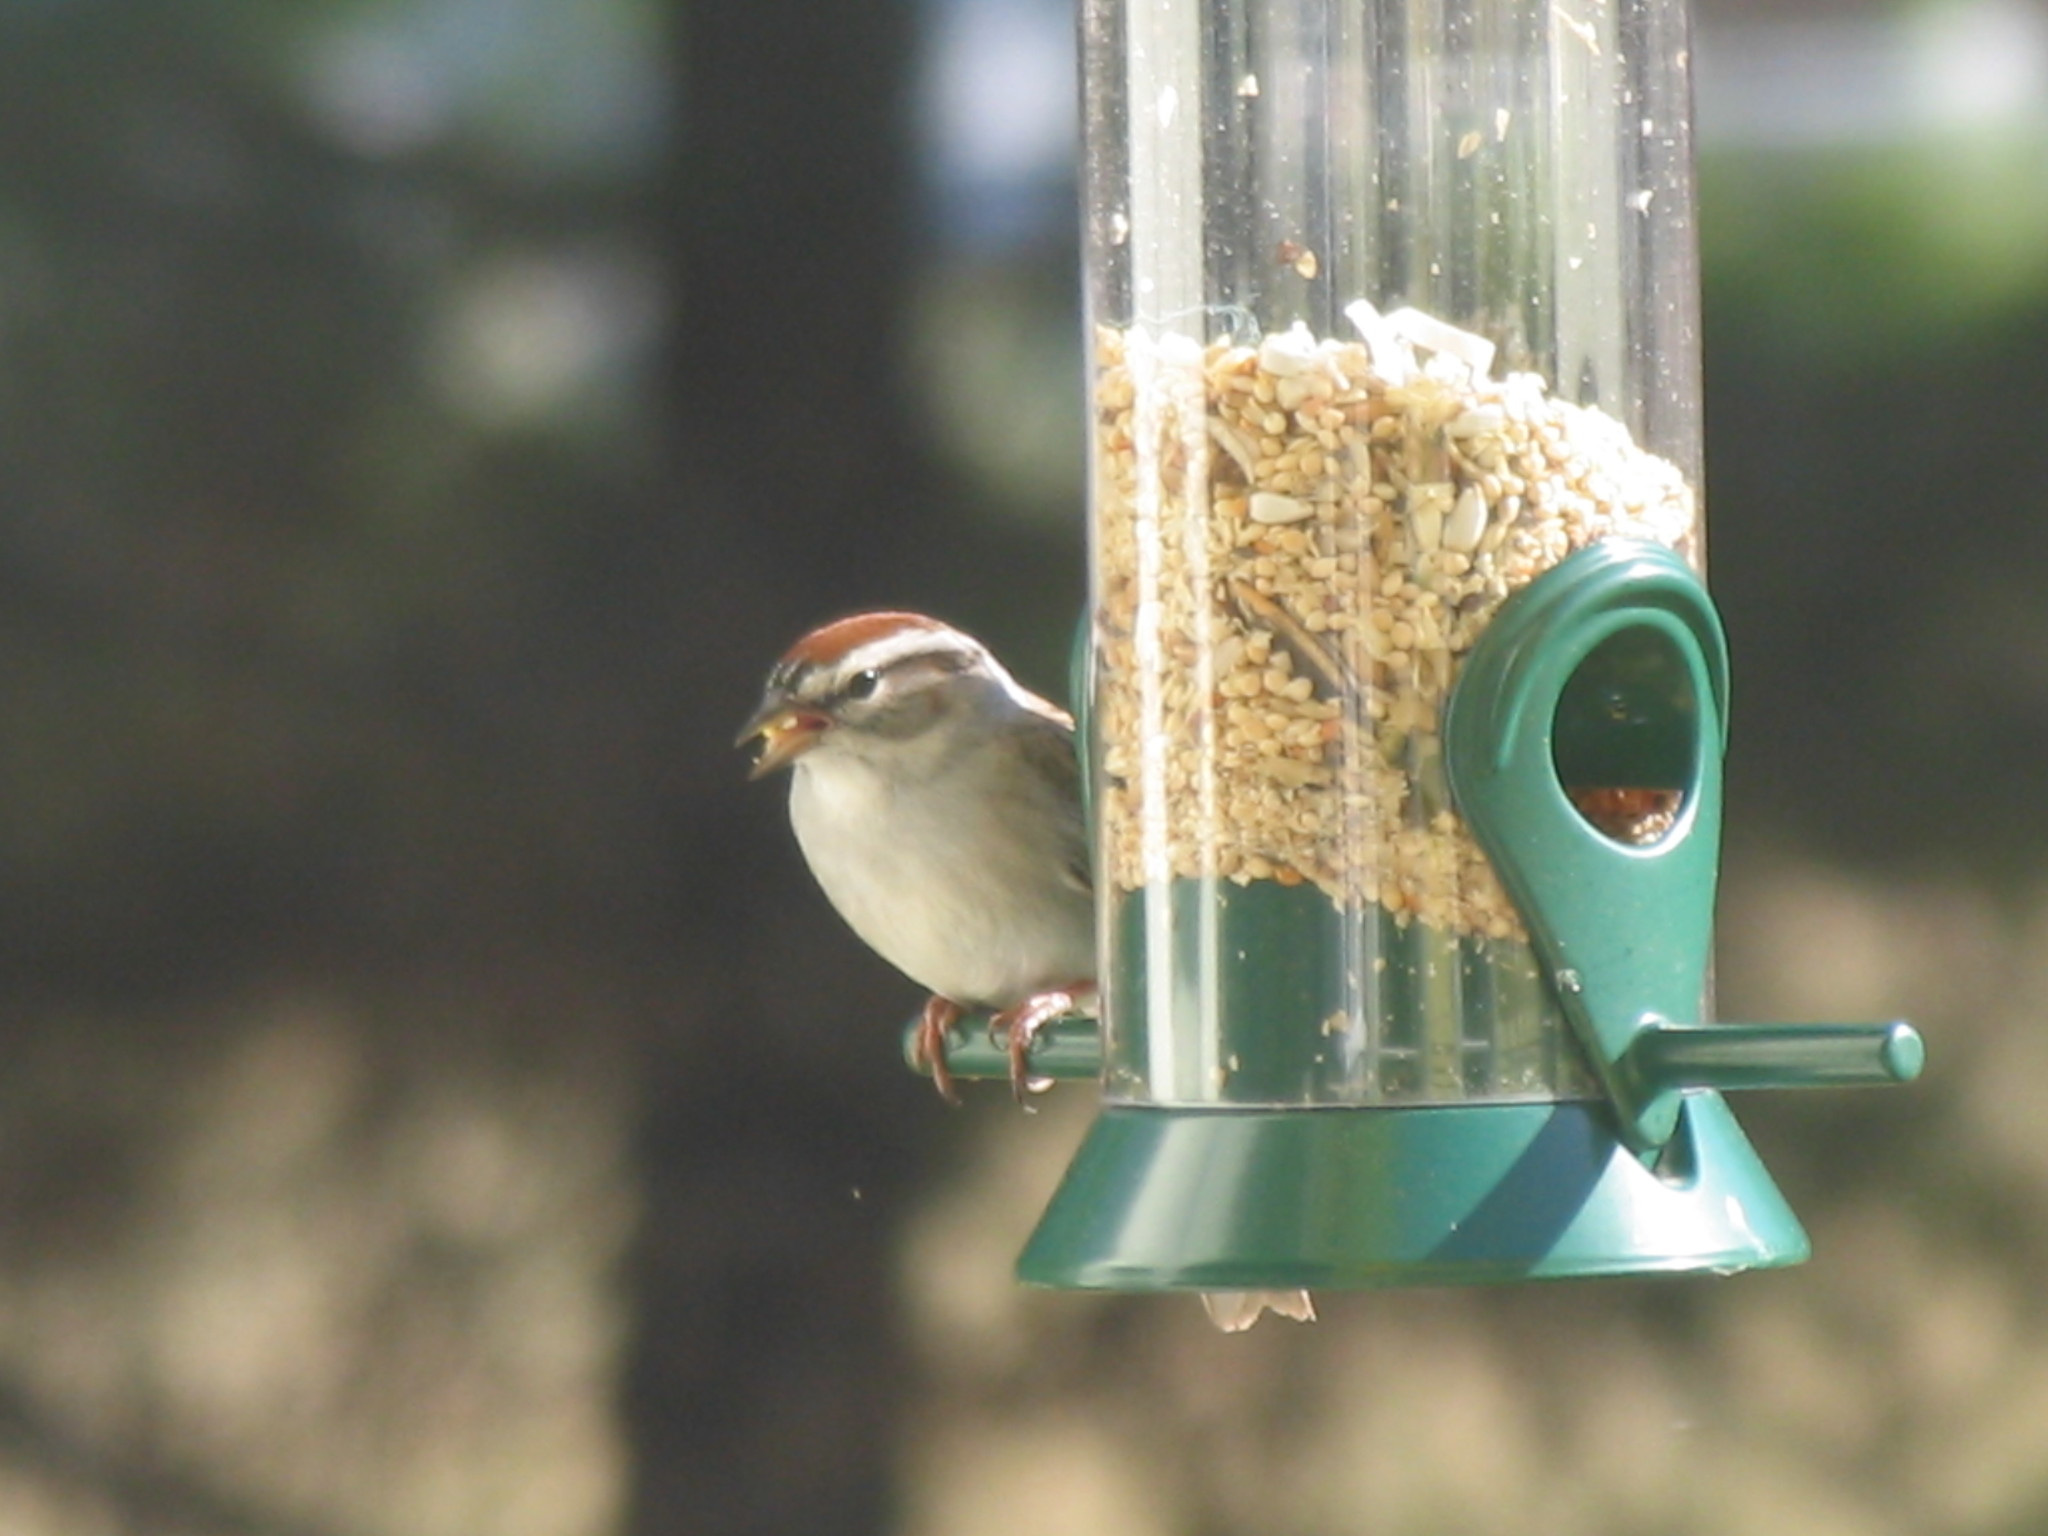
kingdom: Animalia
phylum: Chordata
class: Aves
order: Passeriformes
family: Passerellidae
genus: Spizella
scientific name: Spizella passerina
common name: Chipping sparrow
